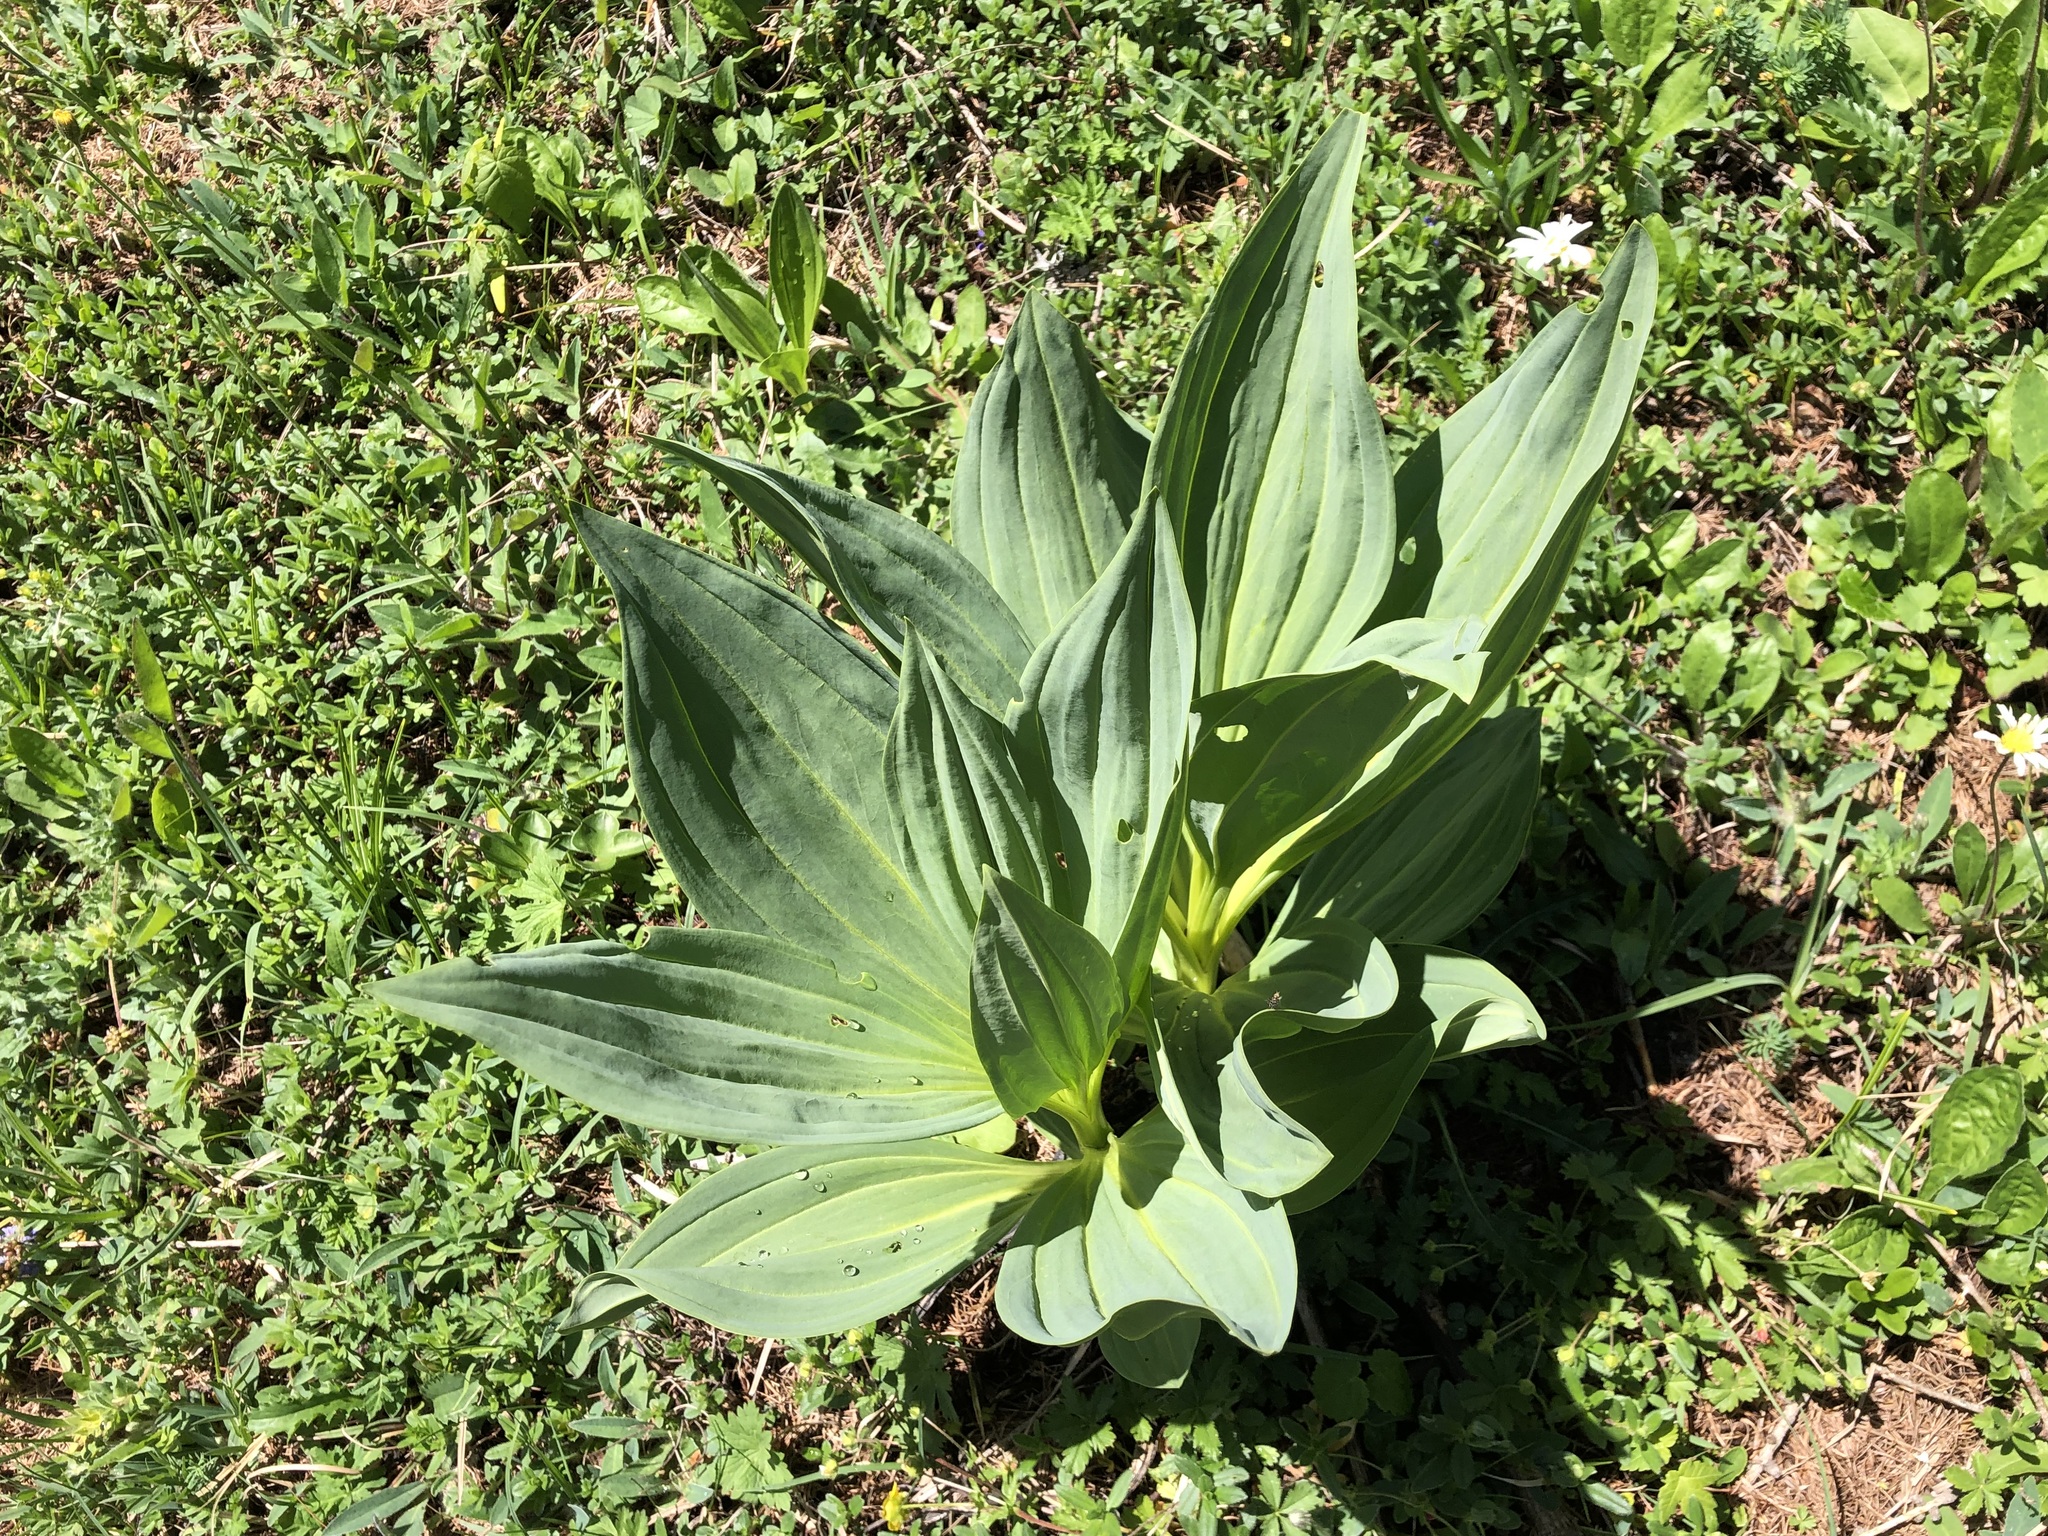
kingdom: Plantae
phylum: Tracheophyta
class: Magnoliopsida
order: Gentianales
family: Gentianaceae
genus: Gentiana
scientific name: Gentiana lutea
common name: Great yellow gentian
